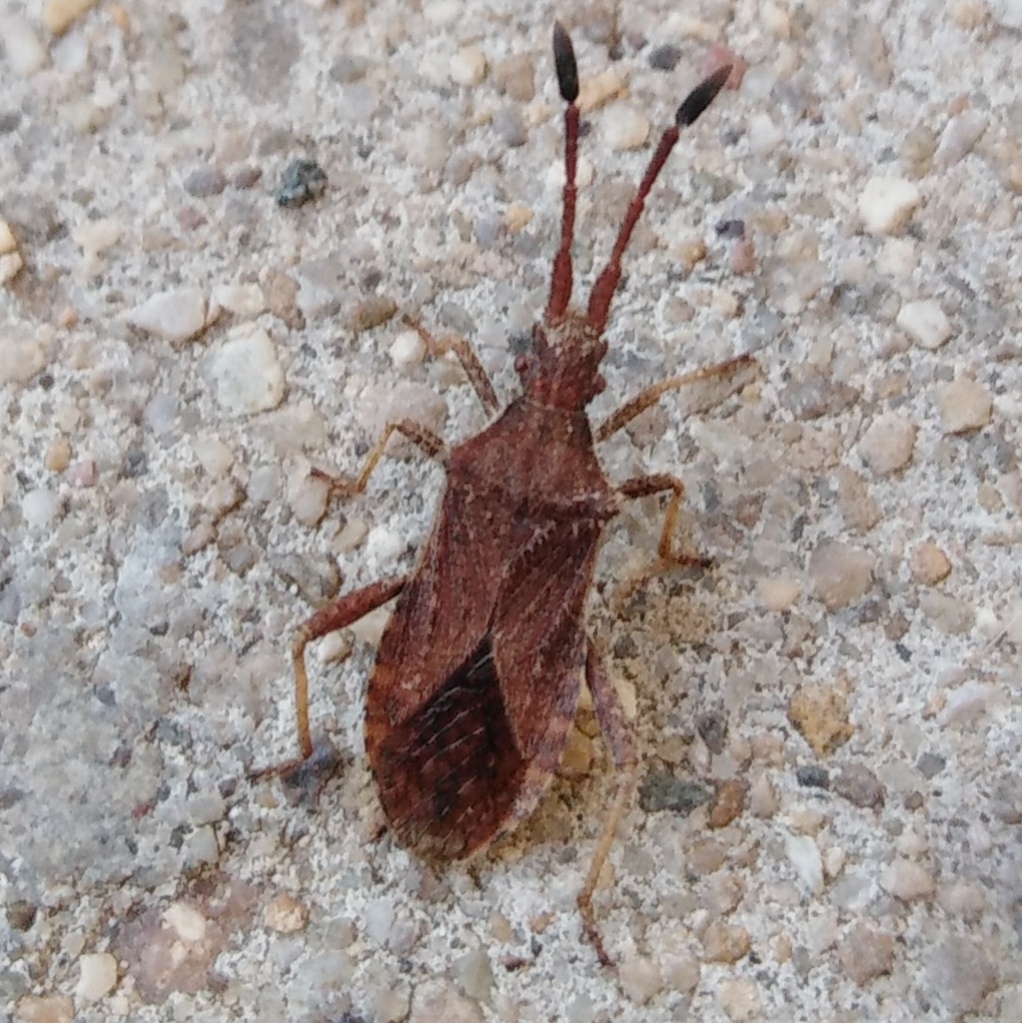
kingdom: Animalia
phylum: Arthropoda
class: Insecta
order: Hemiptera
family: Coreidae
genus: Coriomeris
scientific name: Coriomeris denticulatus
